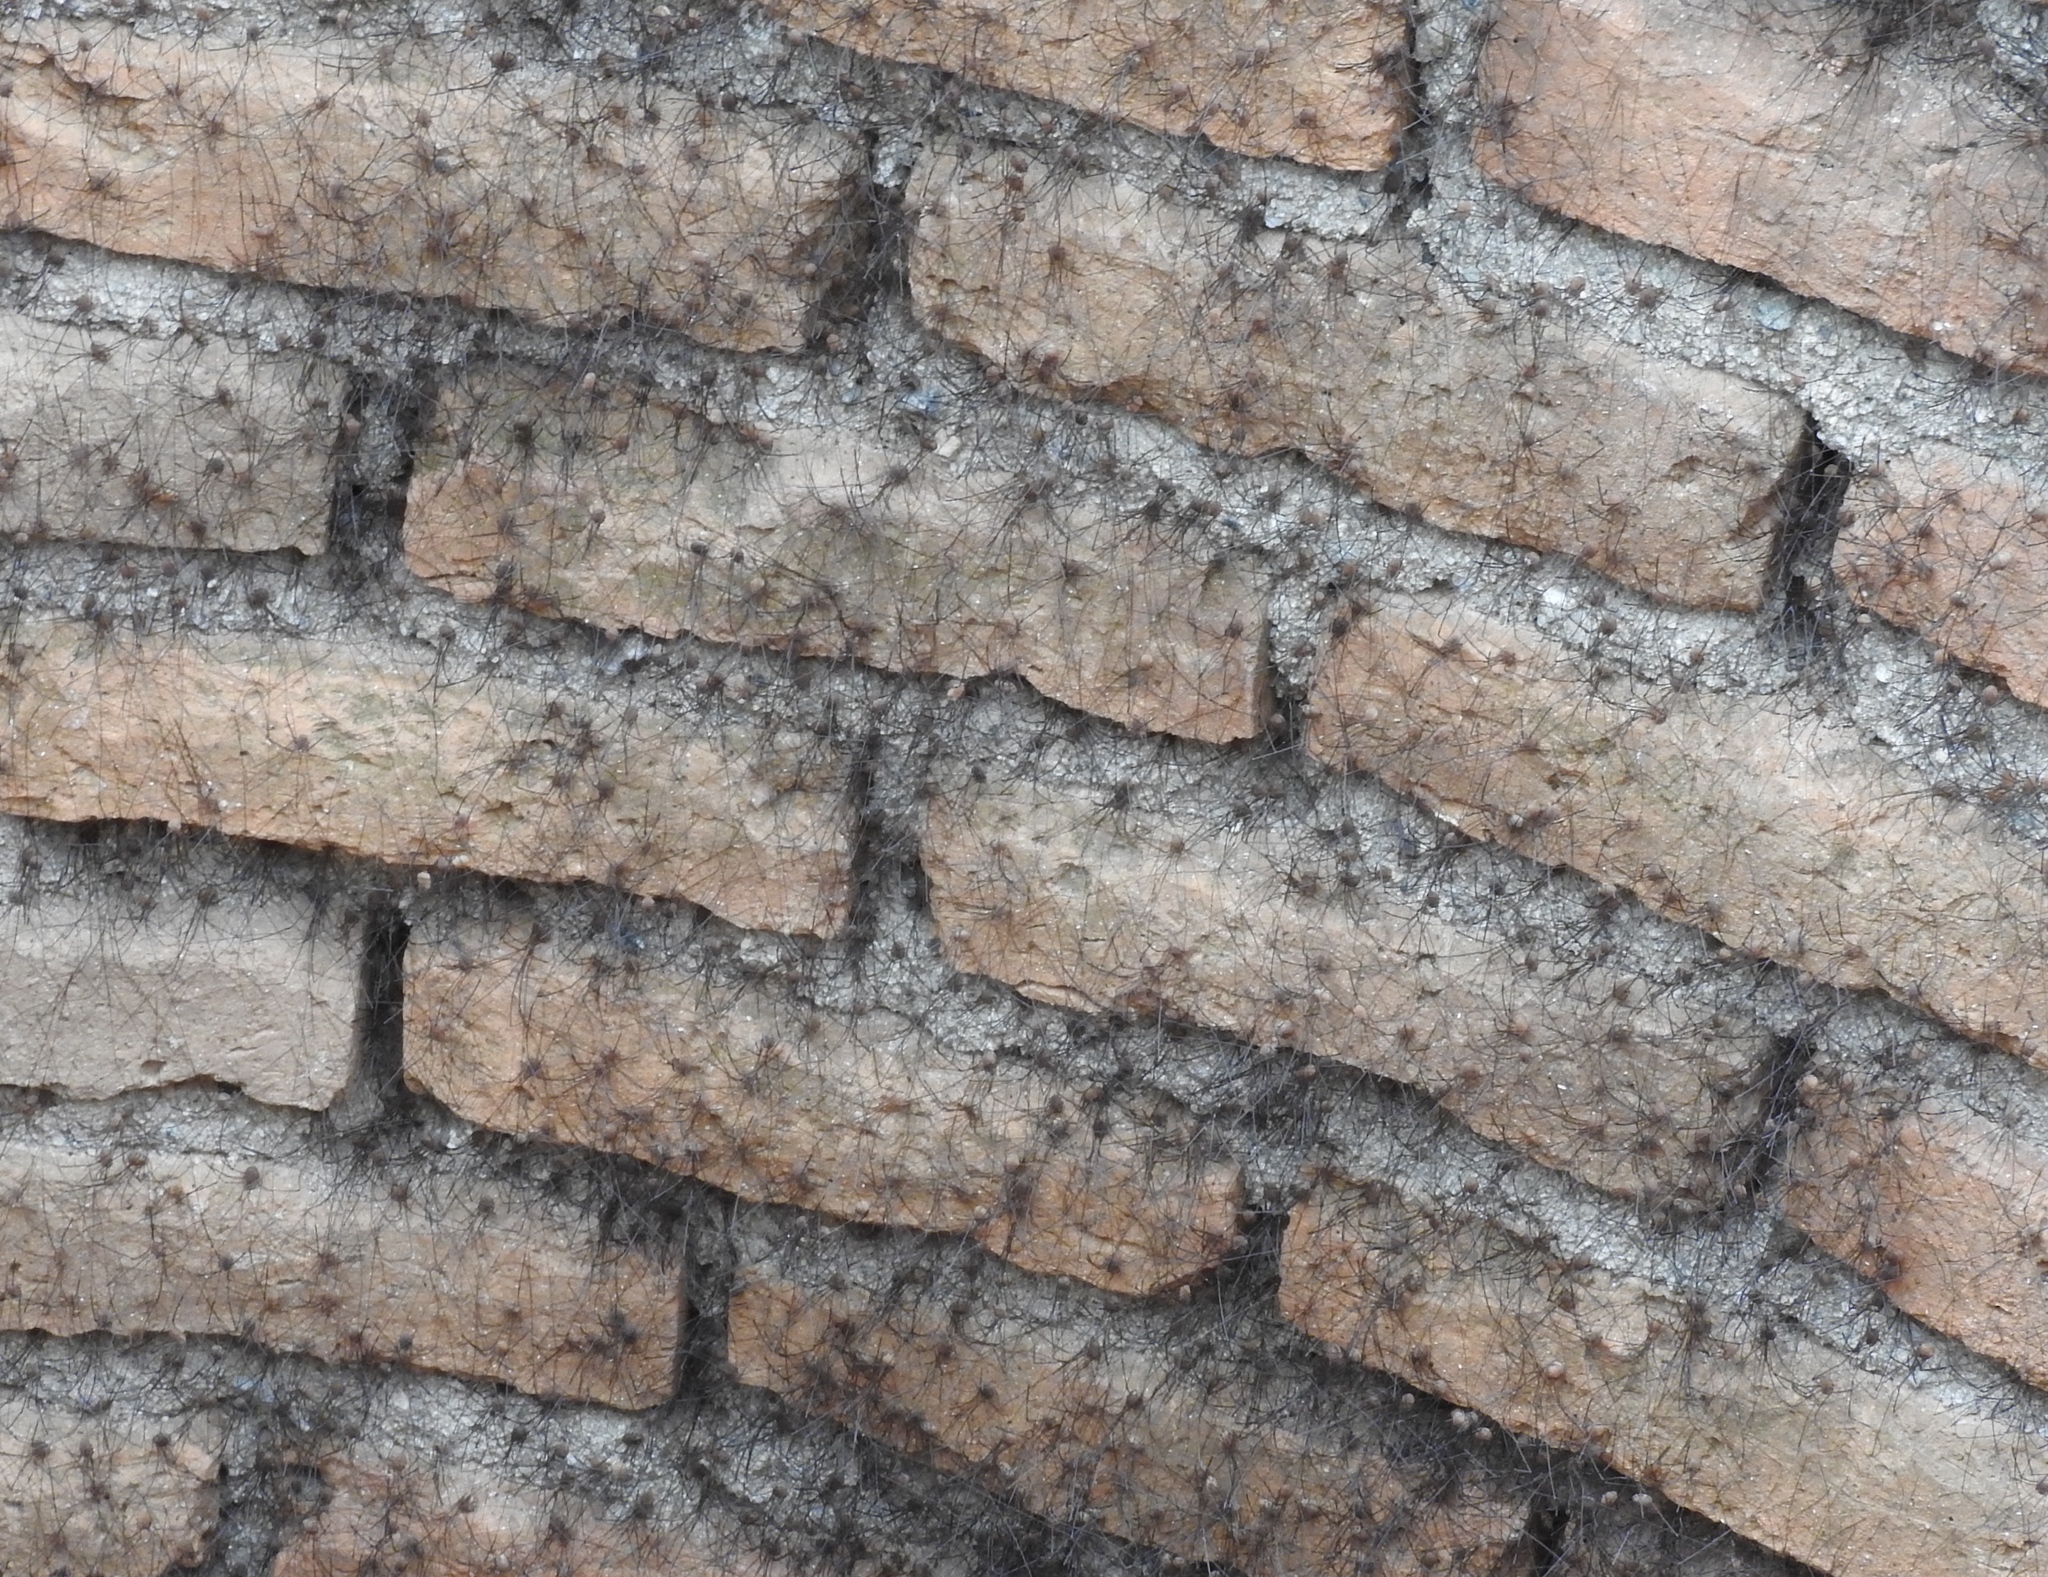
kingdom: Animalia
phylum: Arthropoda
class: Arachnida
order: Opiliones
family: Sclerosomatidae
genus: Leiobunum
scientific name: Leiobunum
